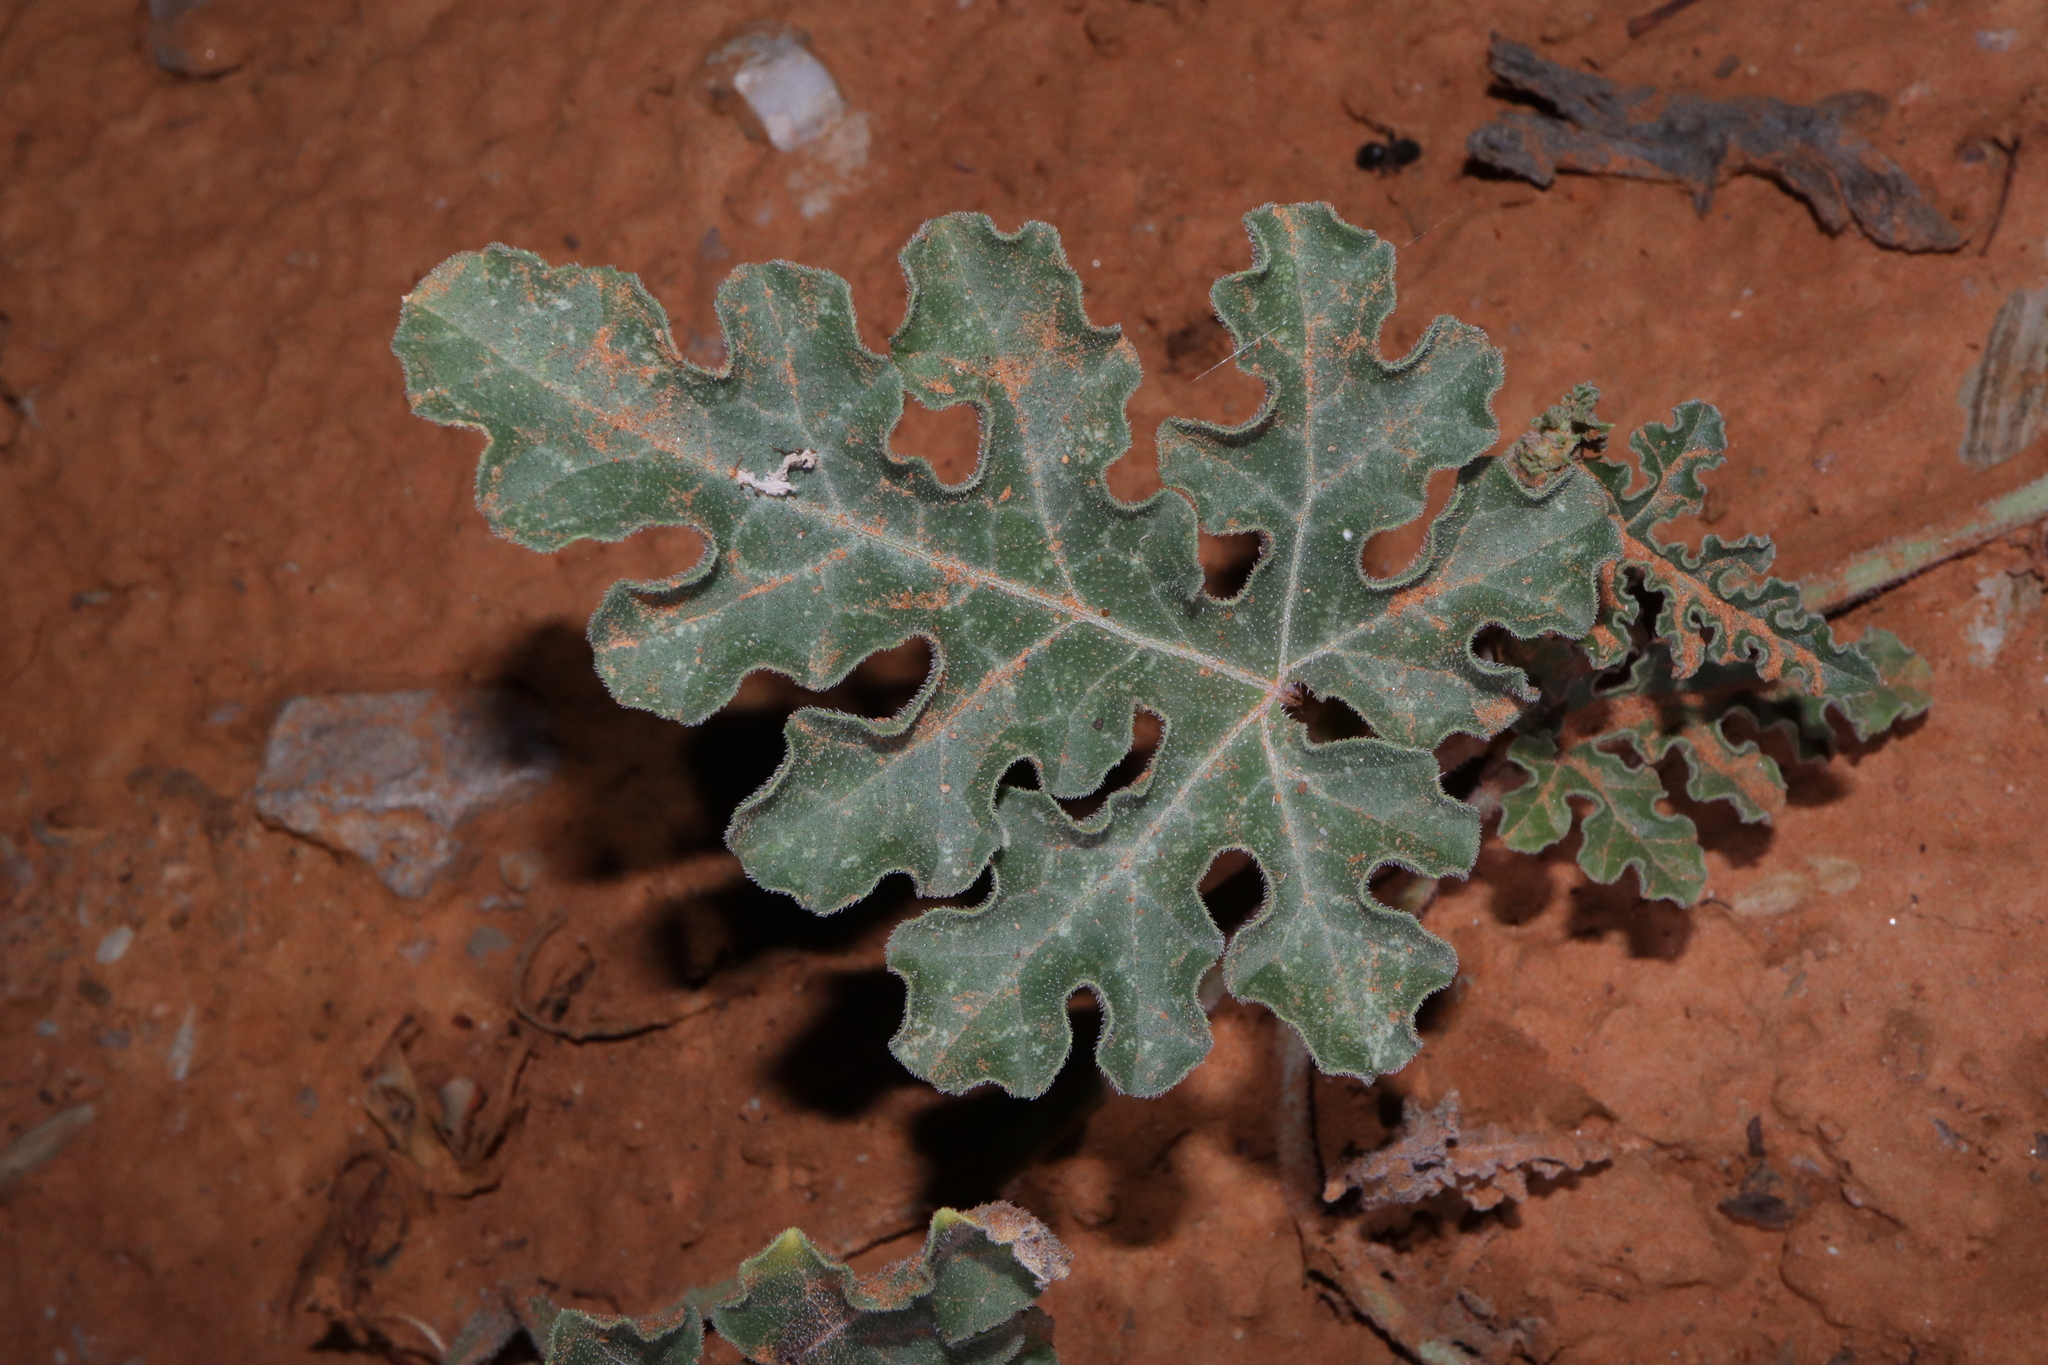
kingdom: Plantae
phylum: Tracheophyta
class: Magnoliopsida
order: Cucurbitales
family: Cucurbitaceae
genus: Citrullus
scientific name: Citrullus colocynthis
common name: Colocynth
